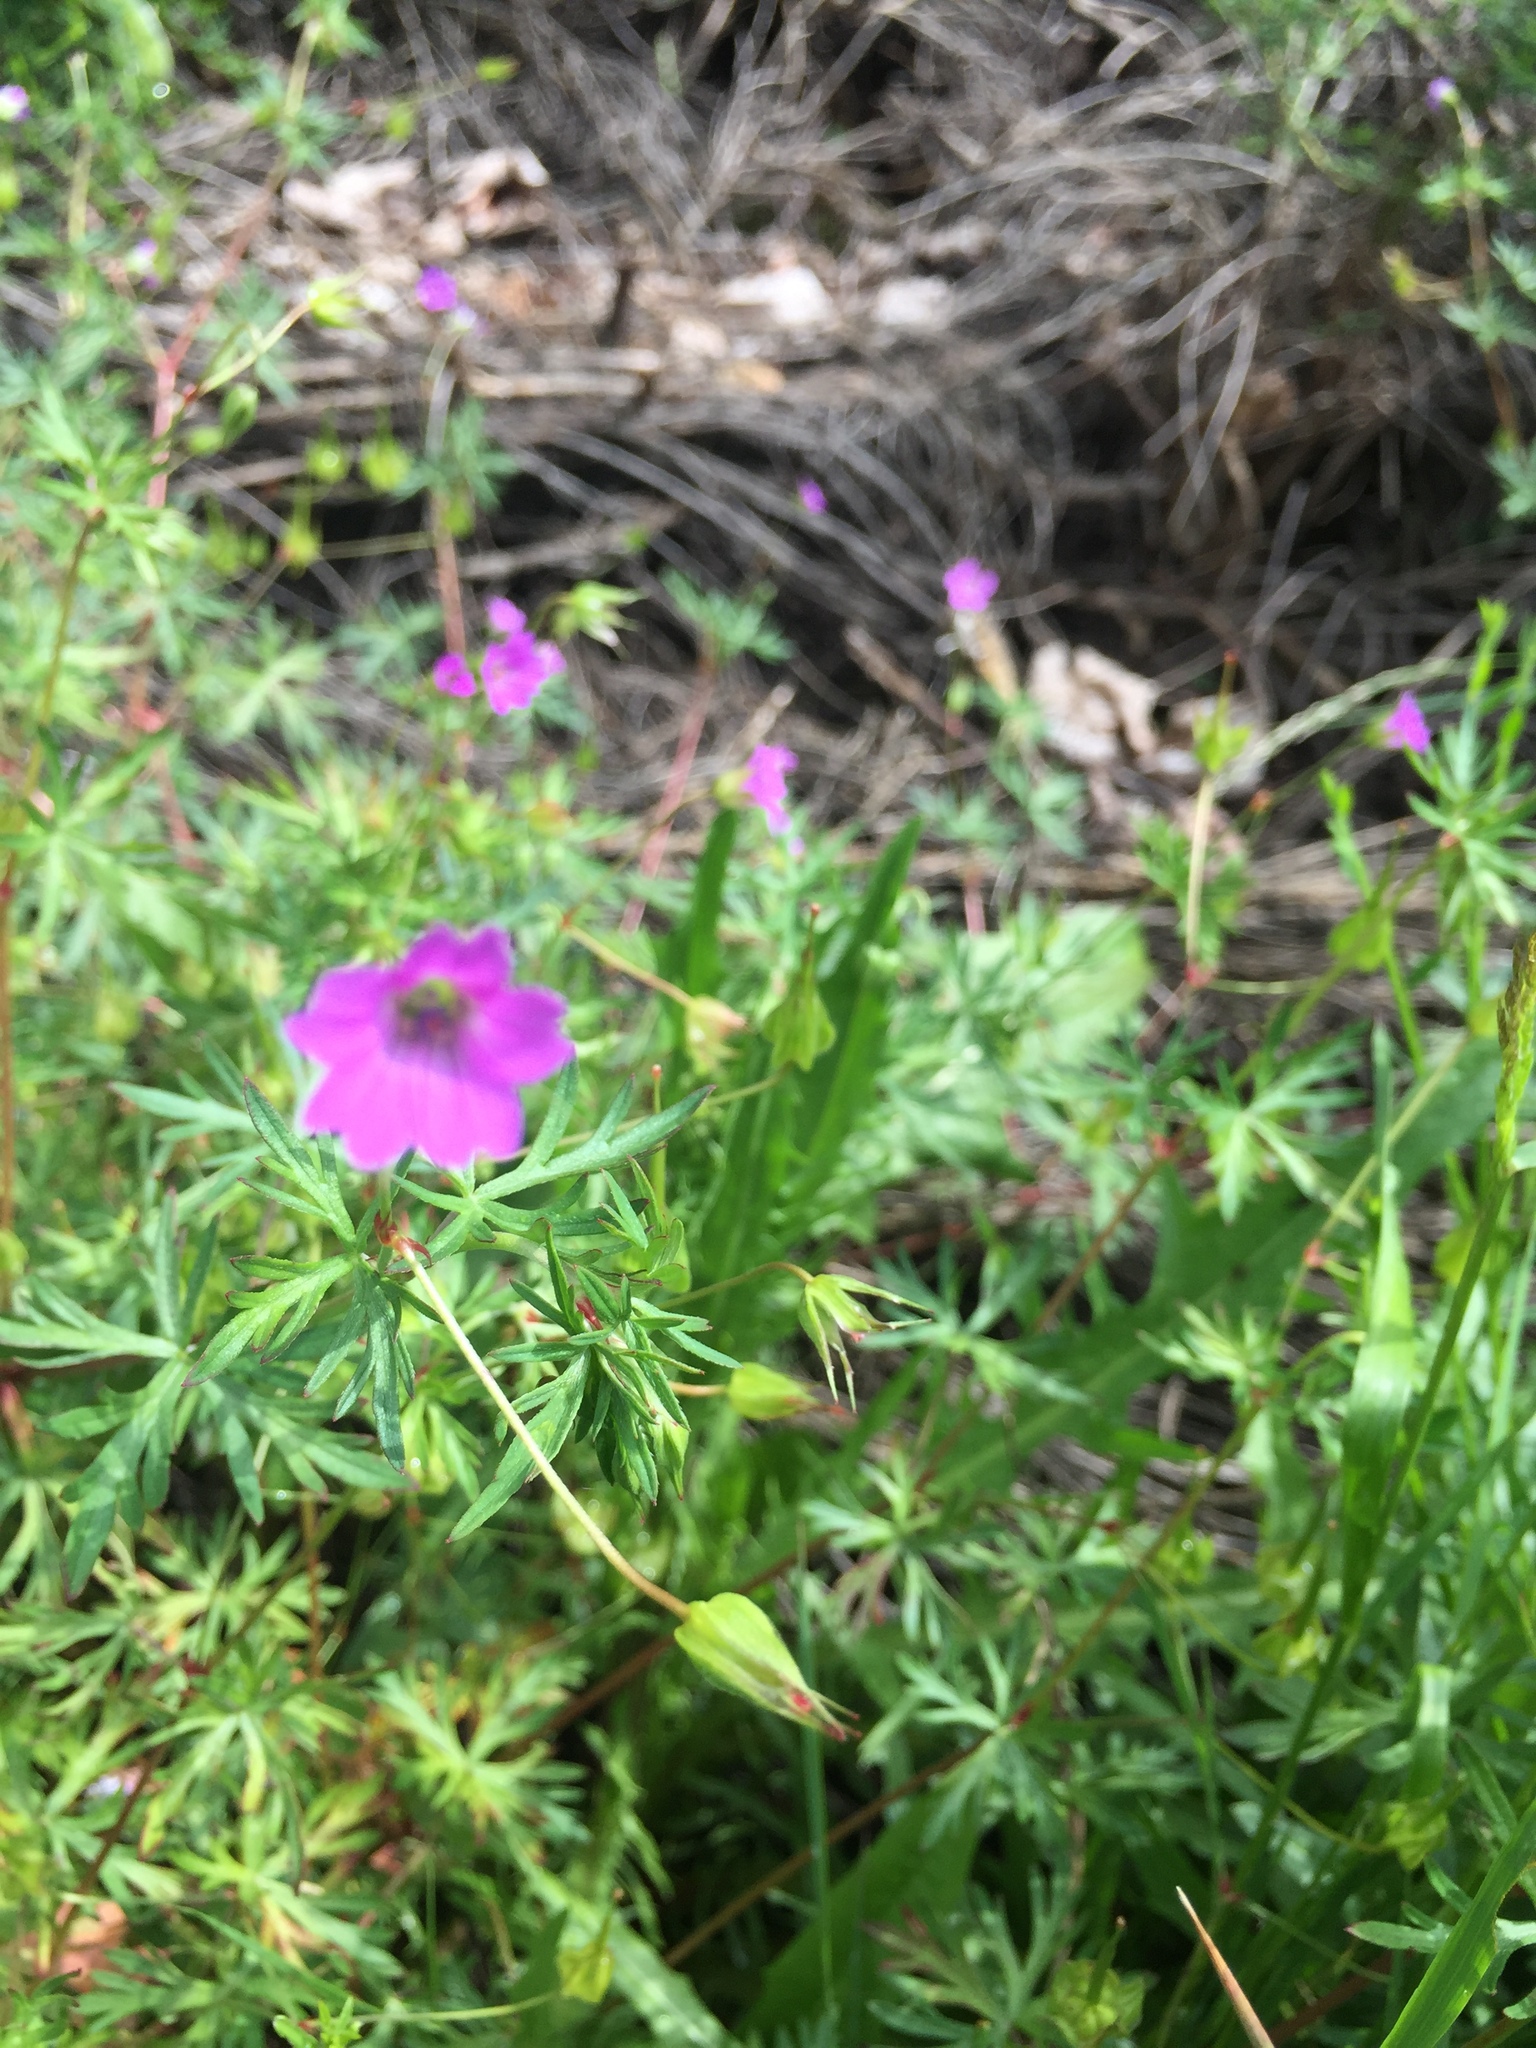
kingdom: Plantae
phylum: Tracheophyta
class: Magnoliopsida
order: Geraniales
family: Geraniaceae
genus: Geranium
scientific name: Geranium columbinum
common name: Long-stalked crane's-bill
